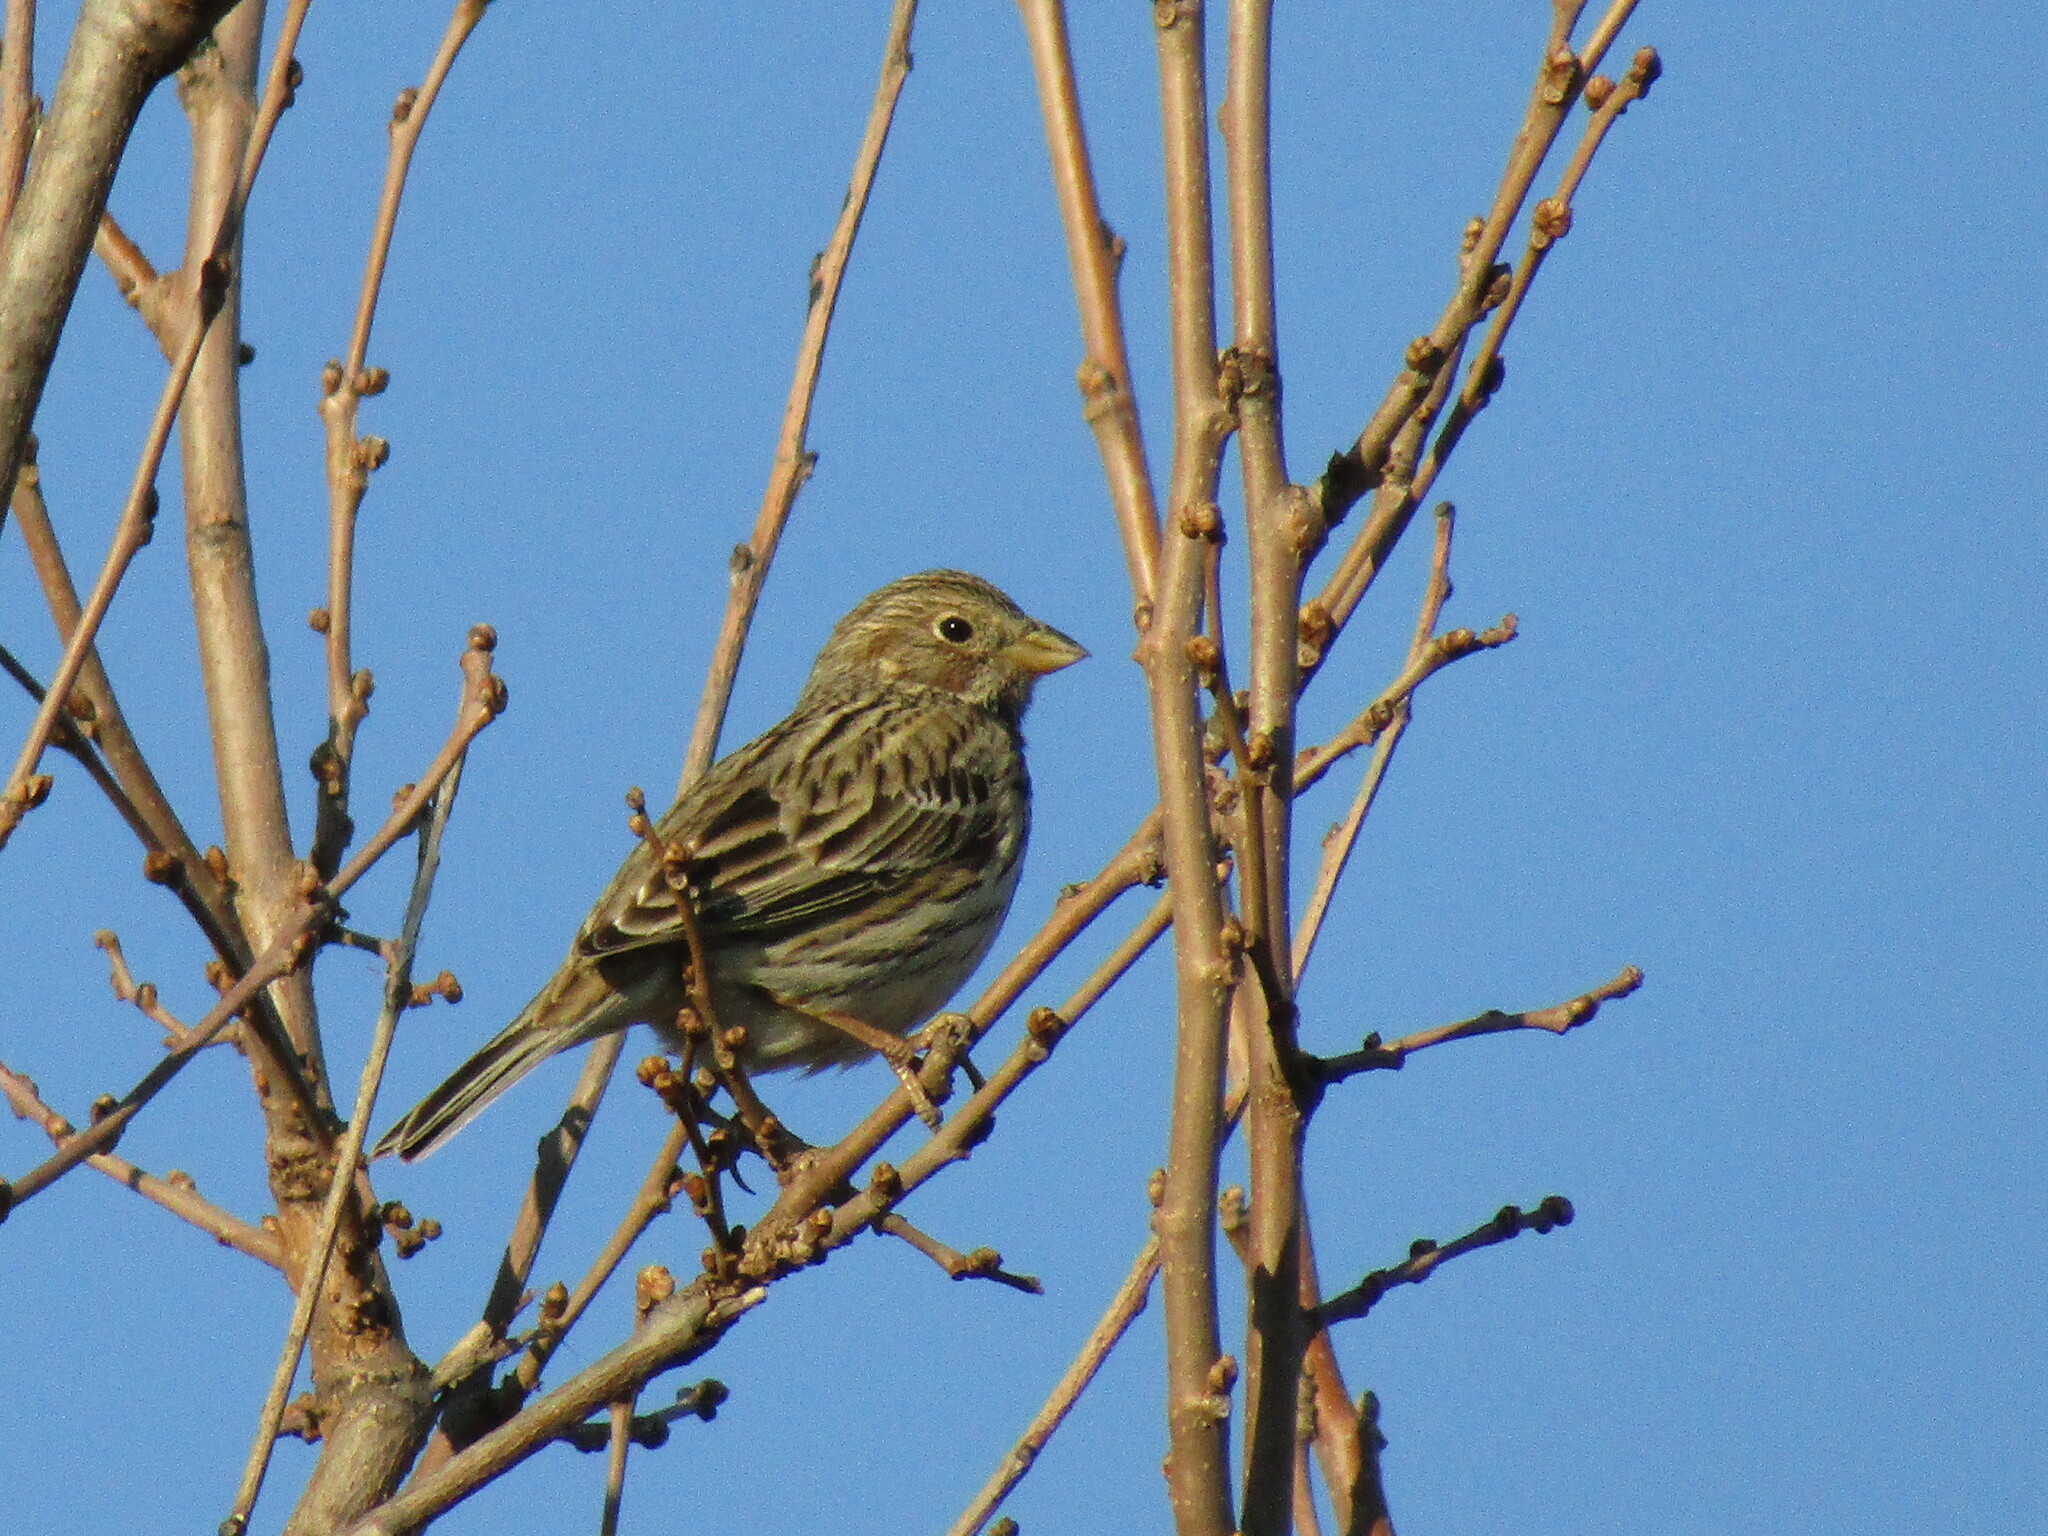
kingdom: Animalia
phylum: Chordata
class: Aves
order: Passeriformes
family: Emberizidae
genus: Emberiza
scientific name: Emberiza calandra
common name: Corn bunting
